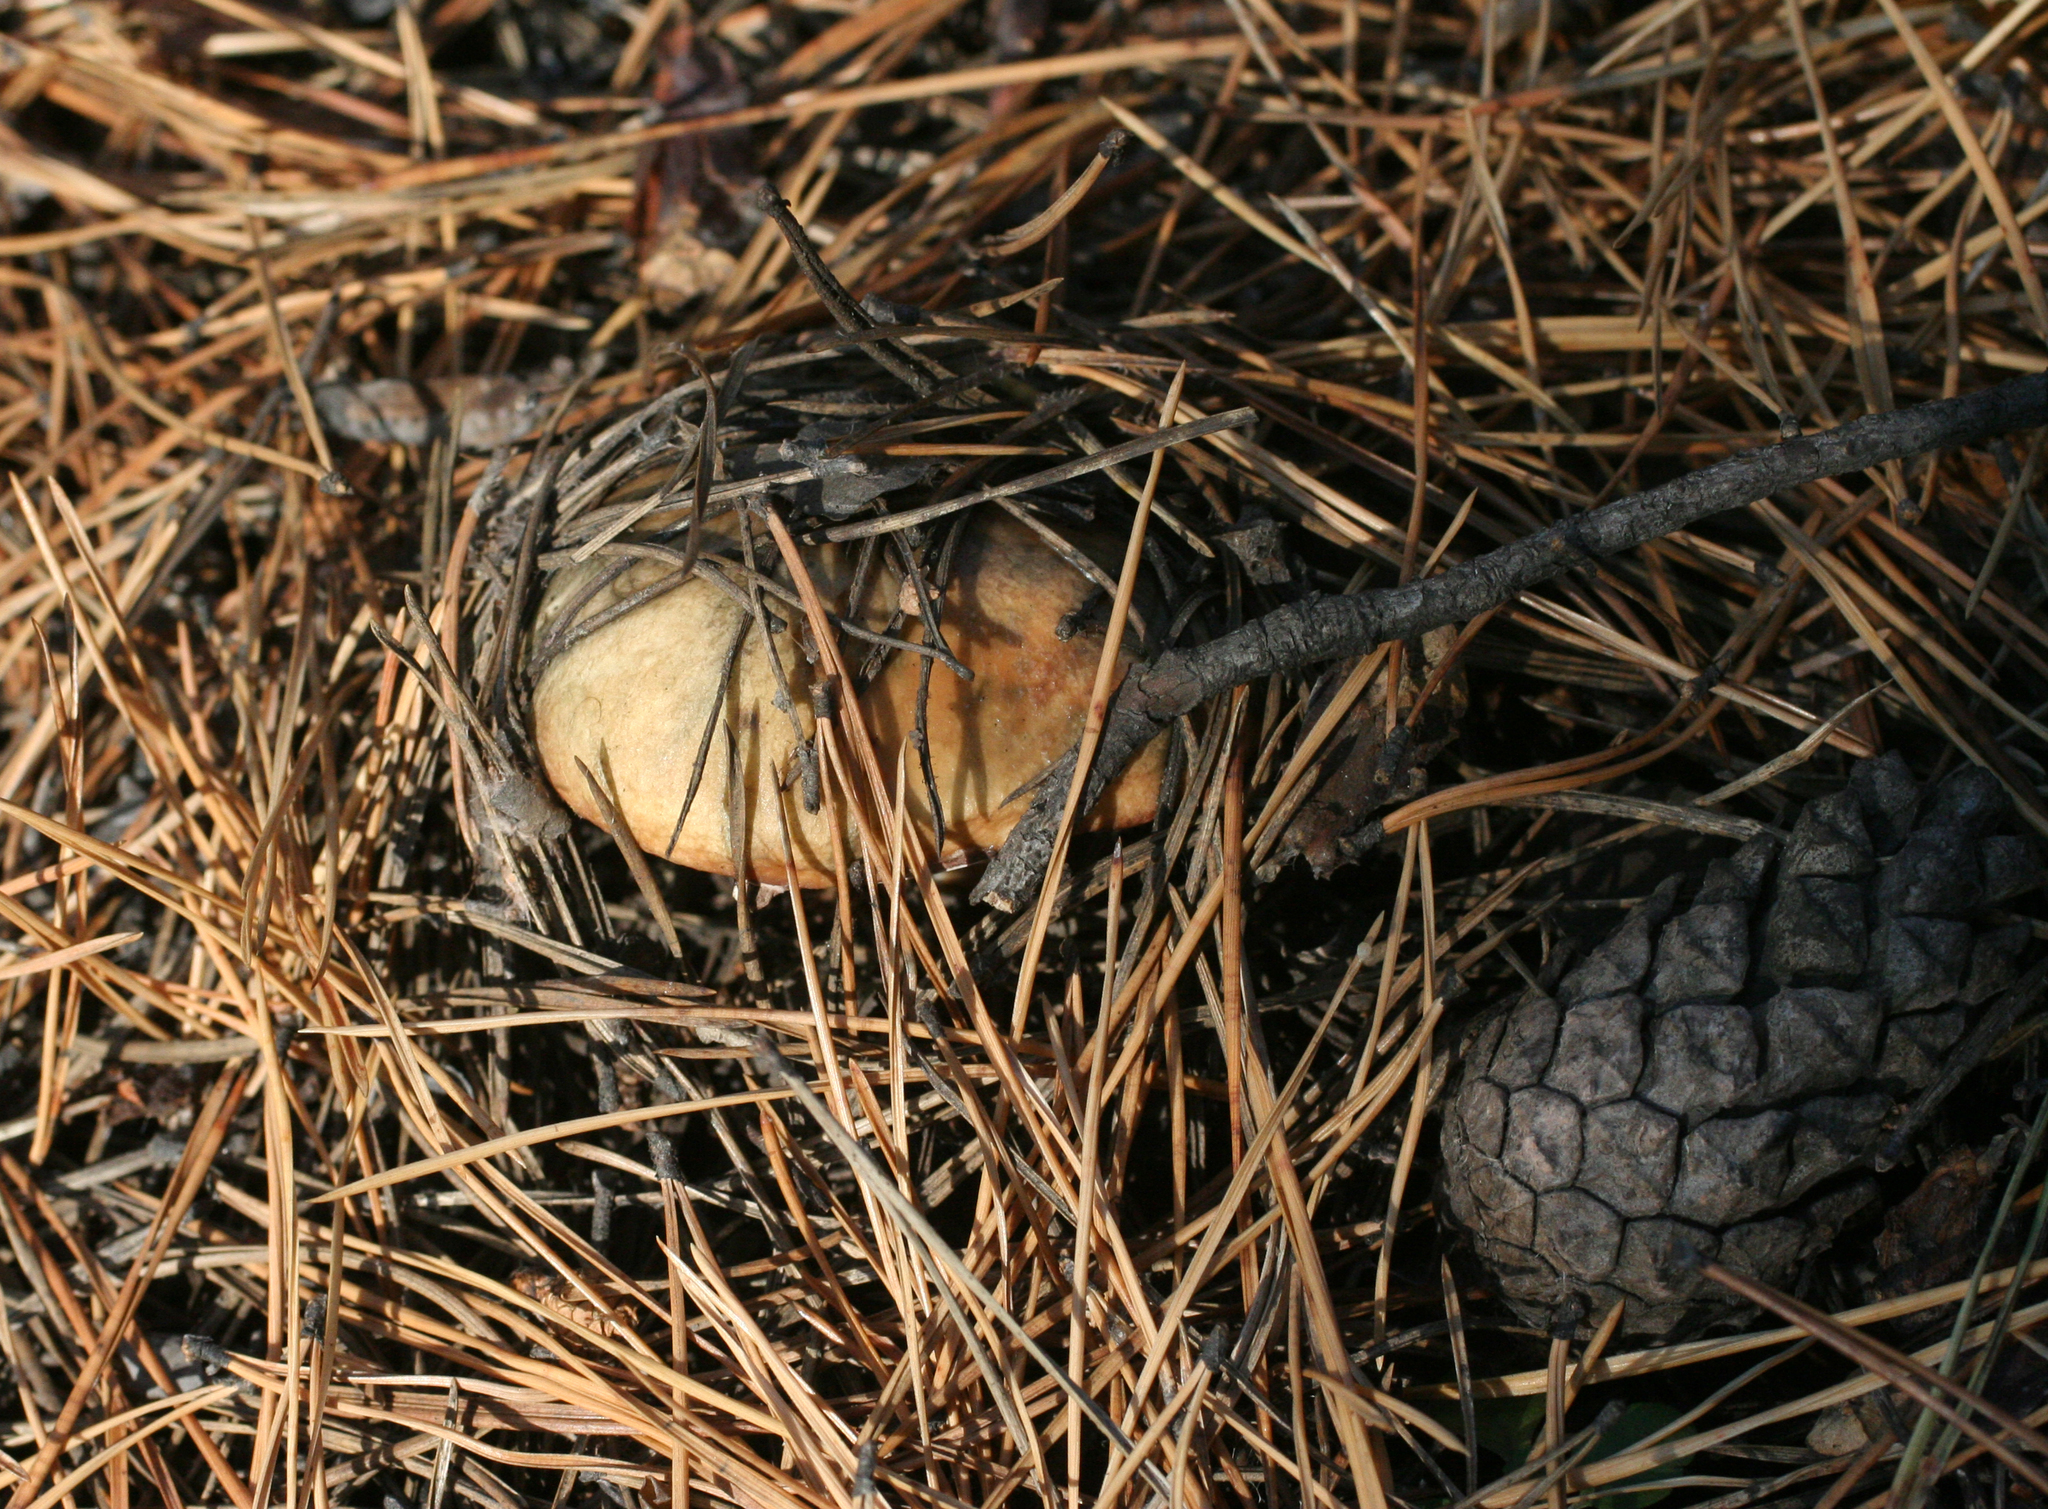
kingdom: Fungi
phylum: Basidiomycota
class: Agaricomycetes
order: Boletales
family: Suillaceae
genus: Suillus
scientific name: Suillus granulatus
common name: Weeping bolete
